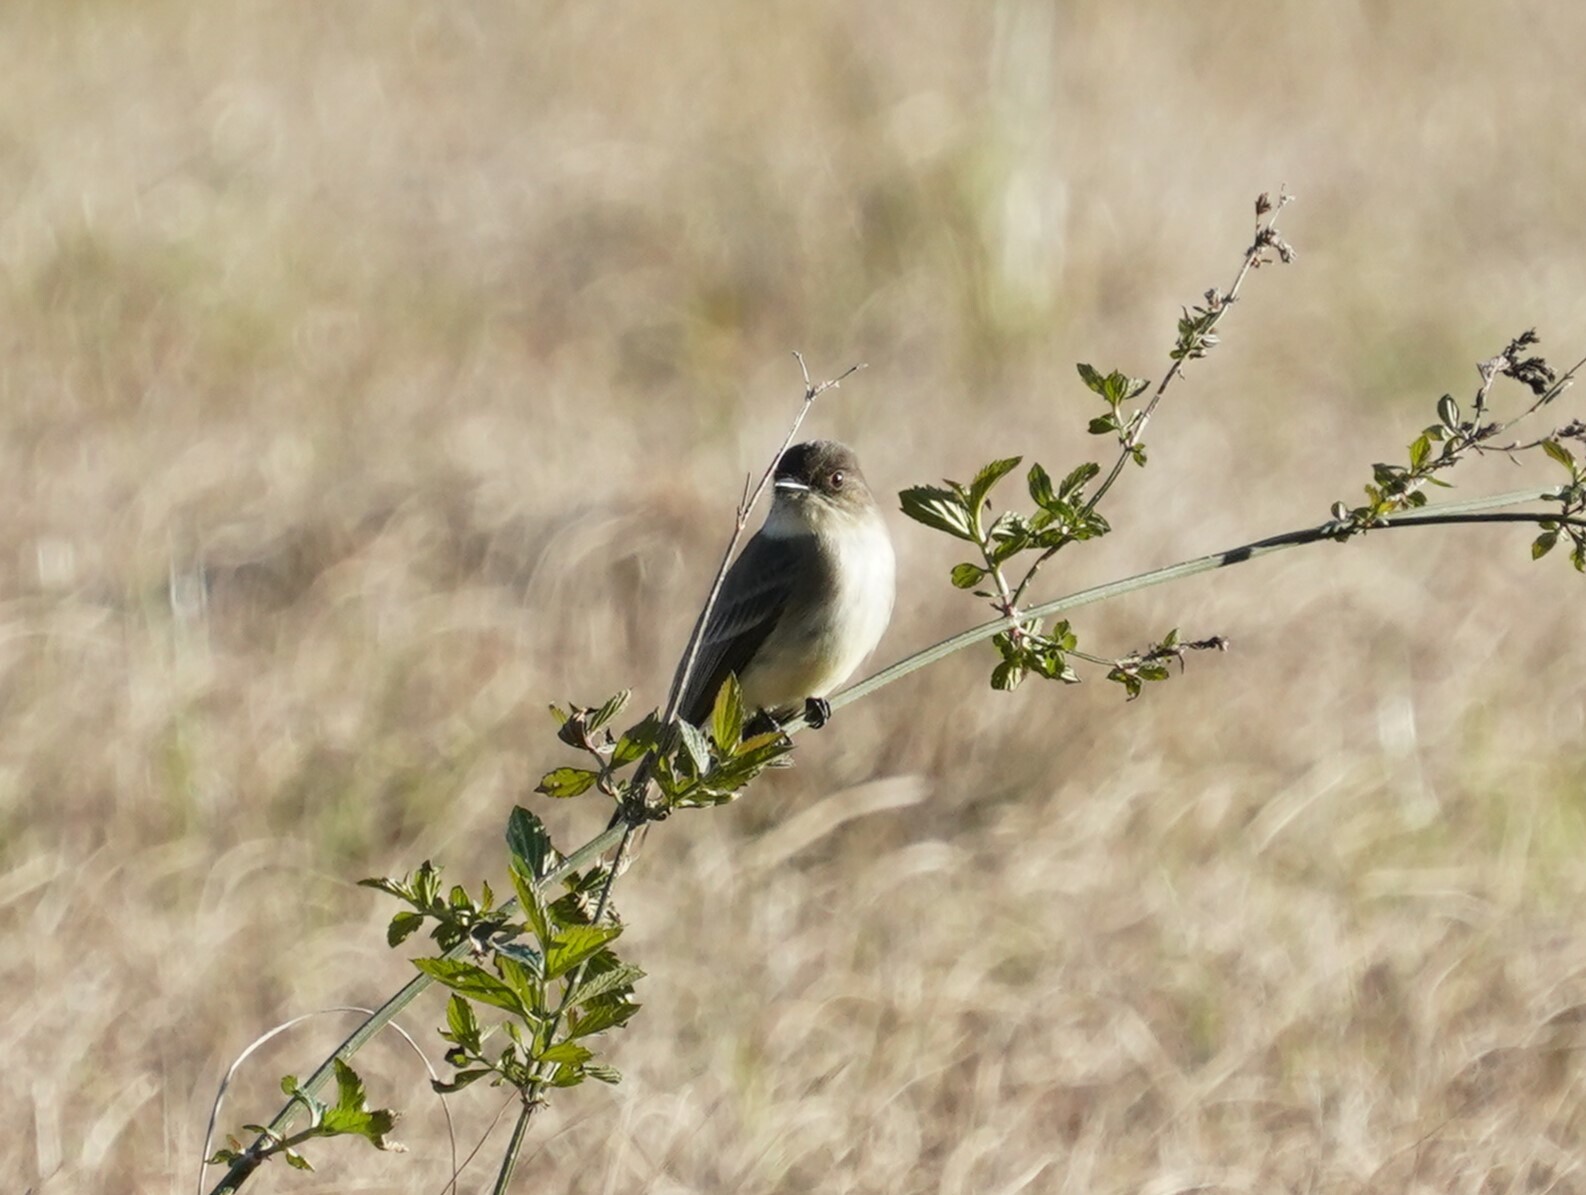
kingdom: Animalia
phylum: Chordata
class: Aves
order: Passeriformes
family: Tyrannidae
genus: Sayornis
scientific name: Sayornis phoebe
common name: Eastern phoebe
